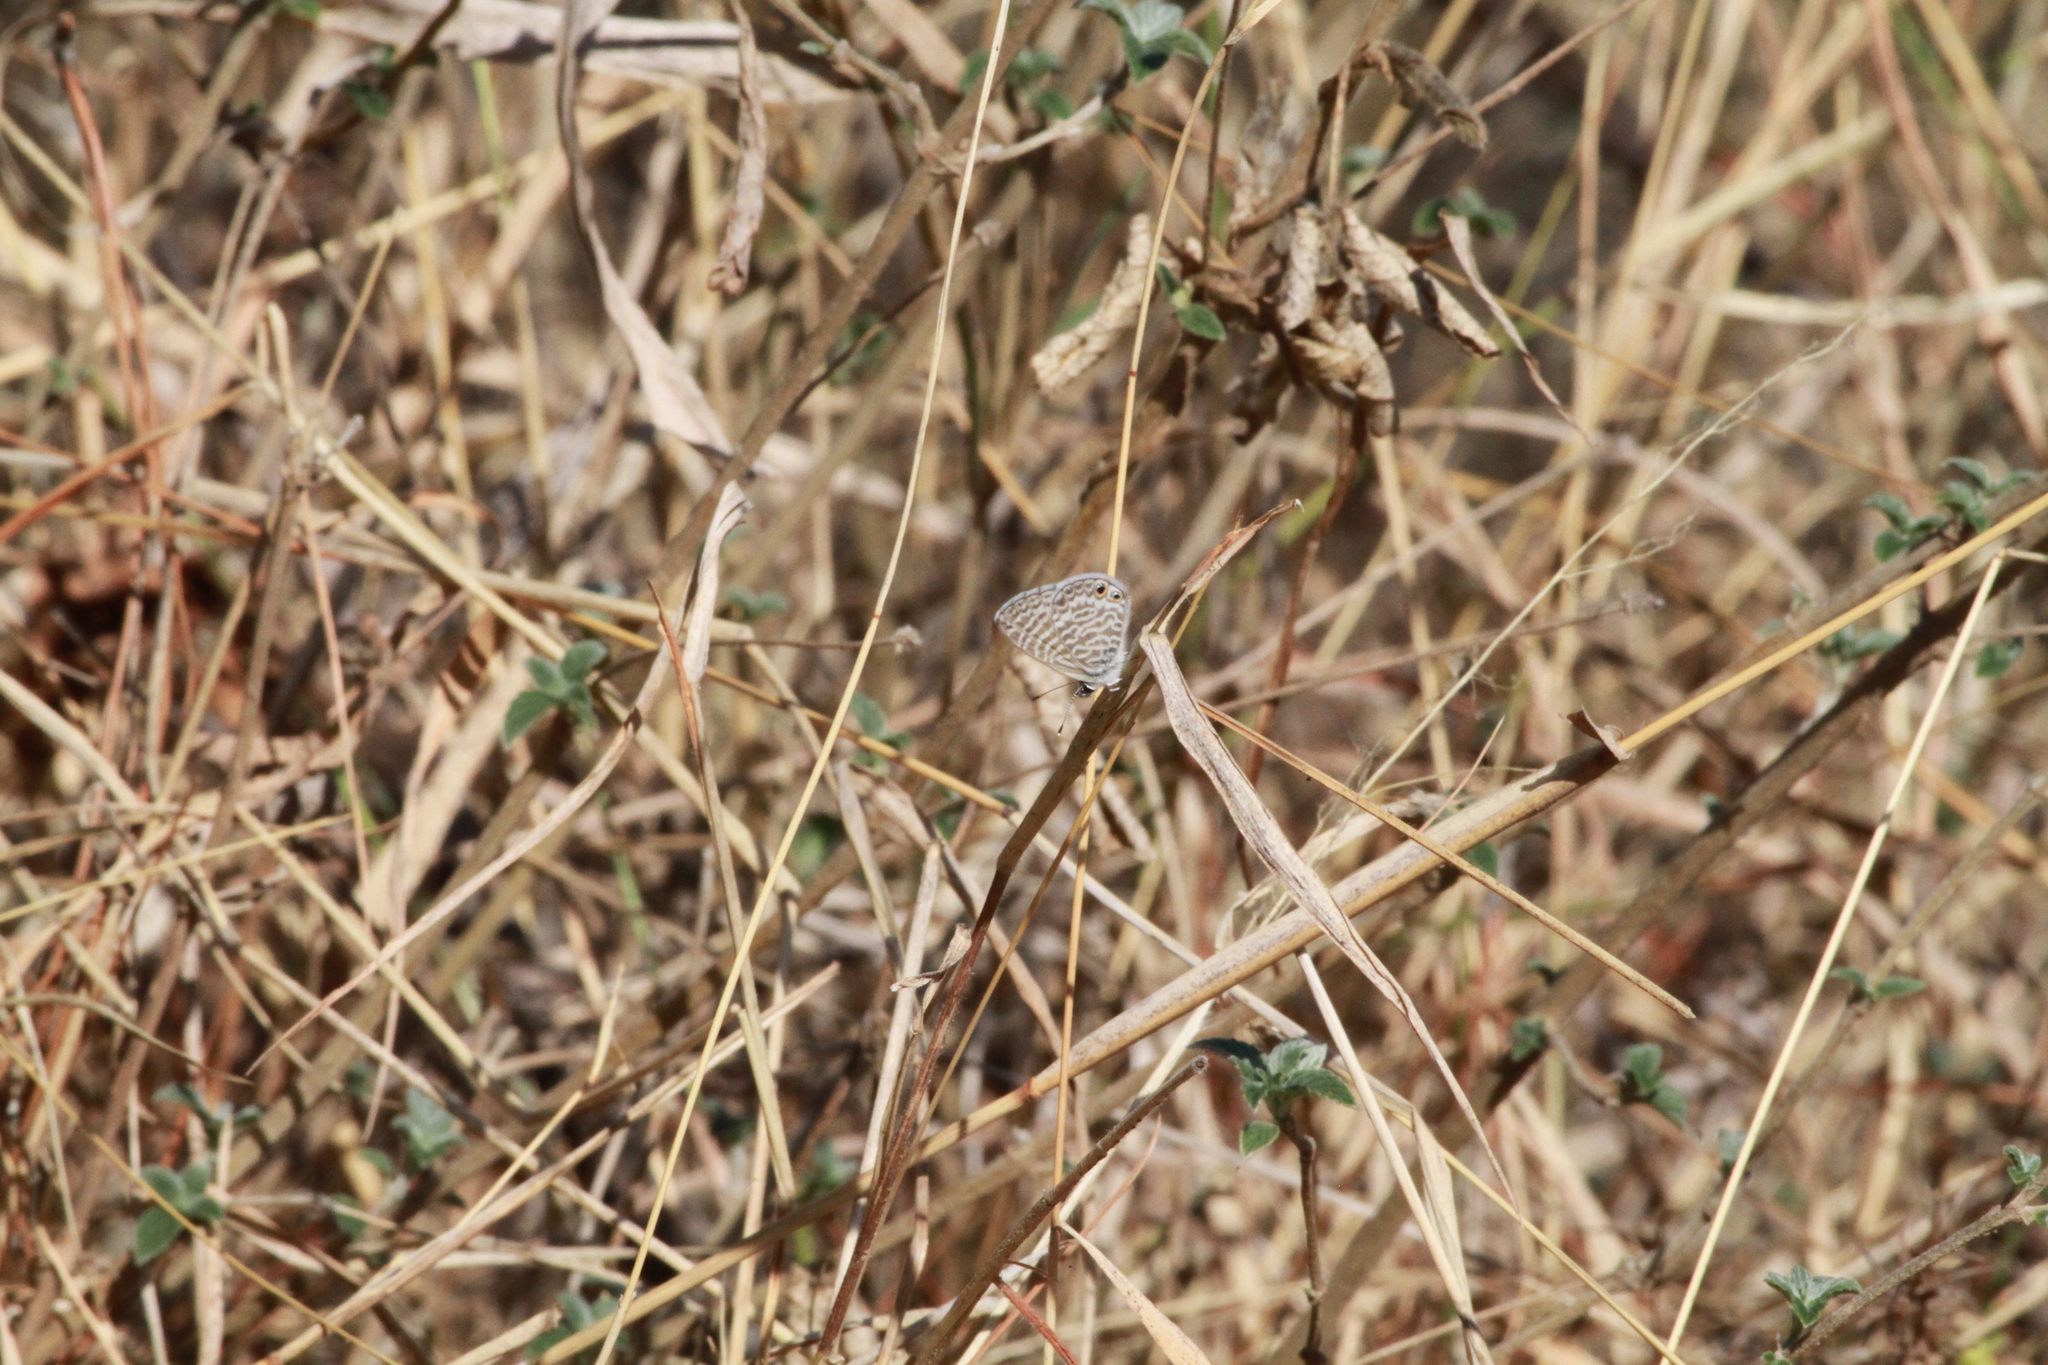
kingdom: Animalia
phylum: Arthropoda
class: Insecta
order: Lepidoptera
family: Lycaenidae
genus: Leptotes
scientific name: Leptotes marina
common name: Marine blue
